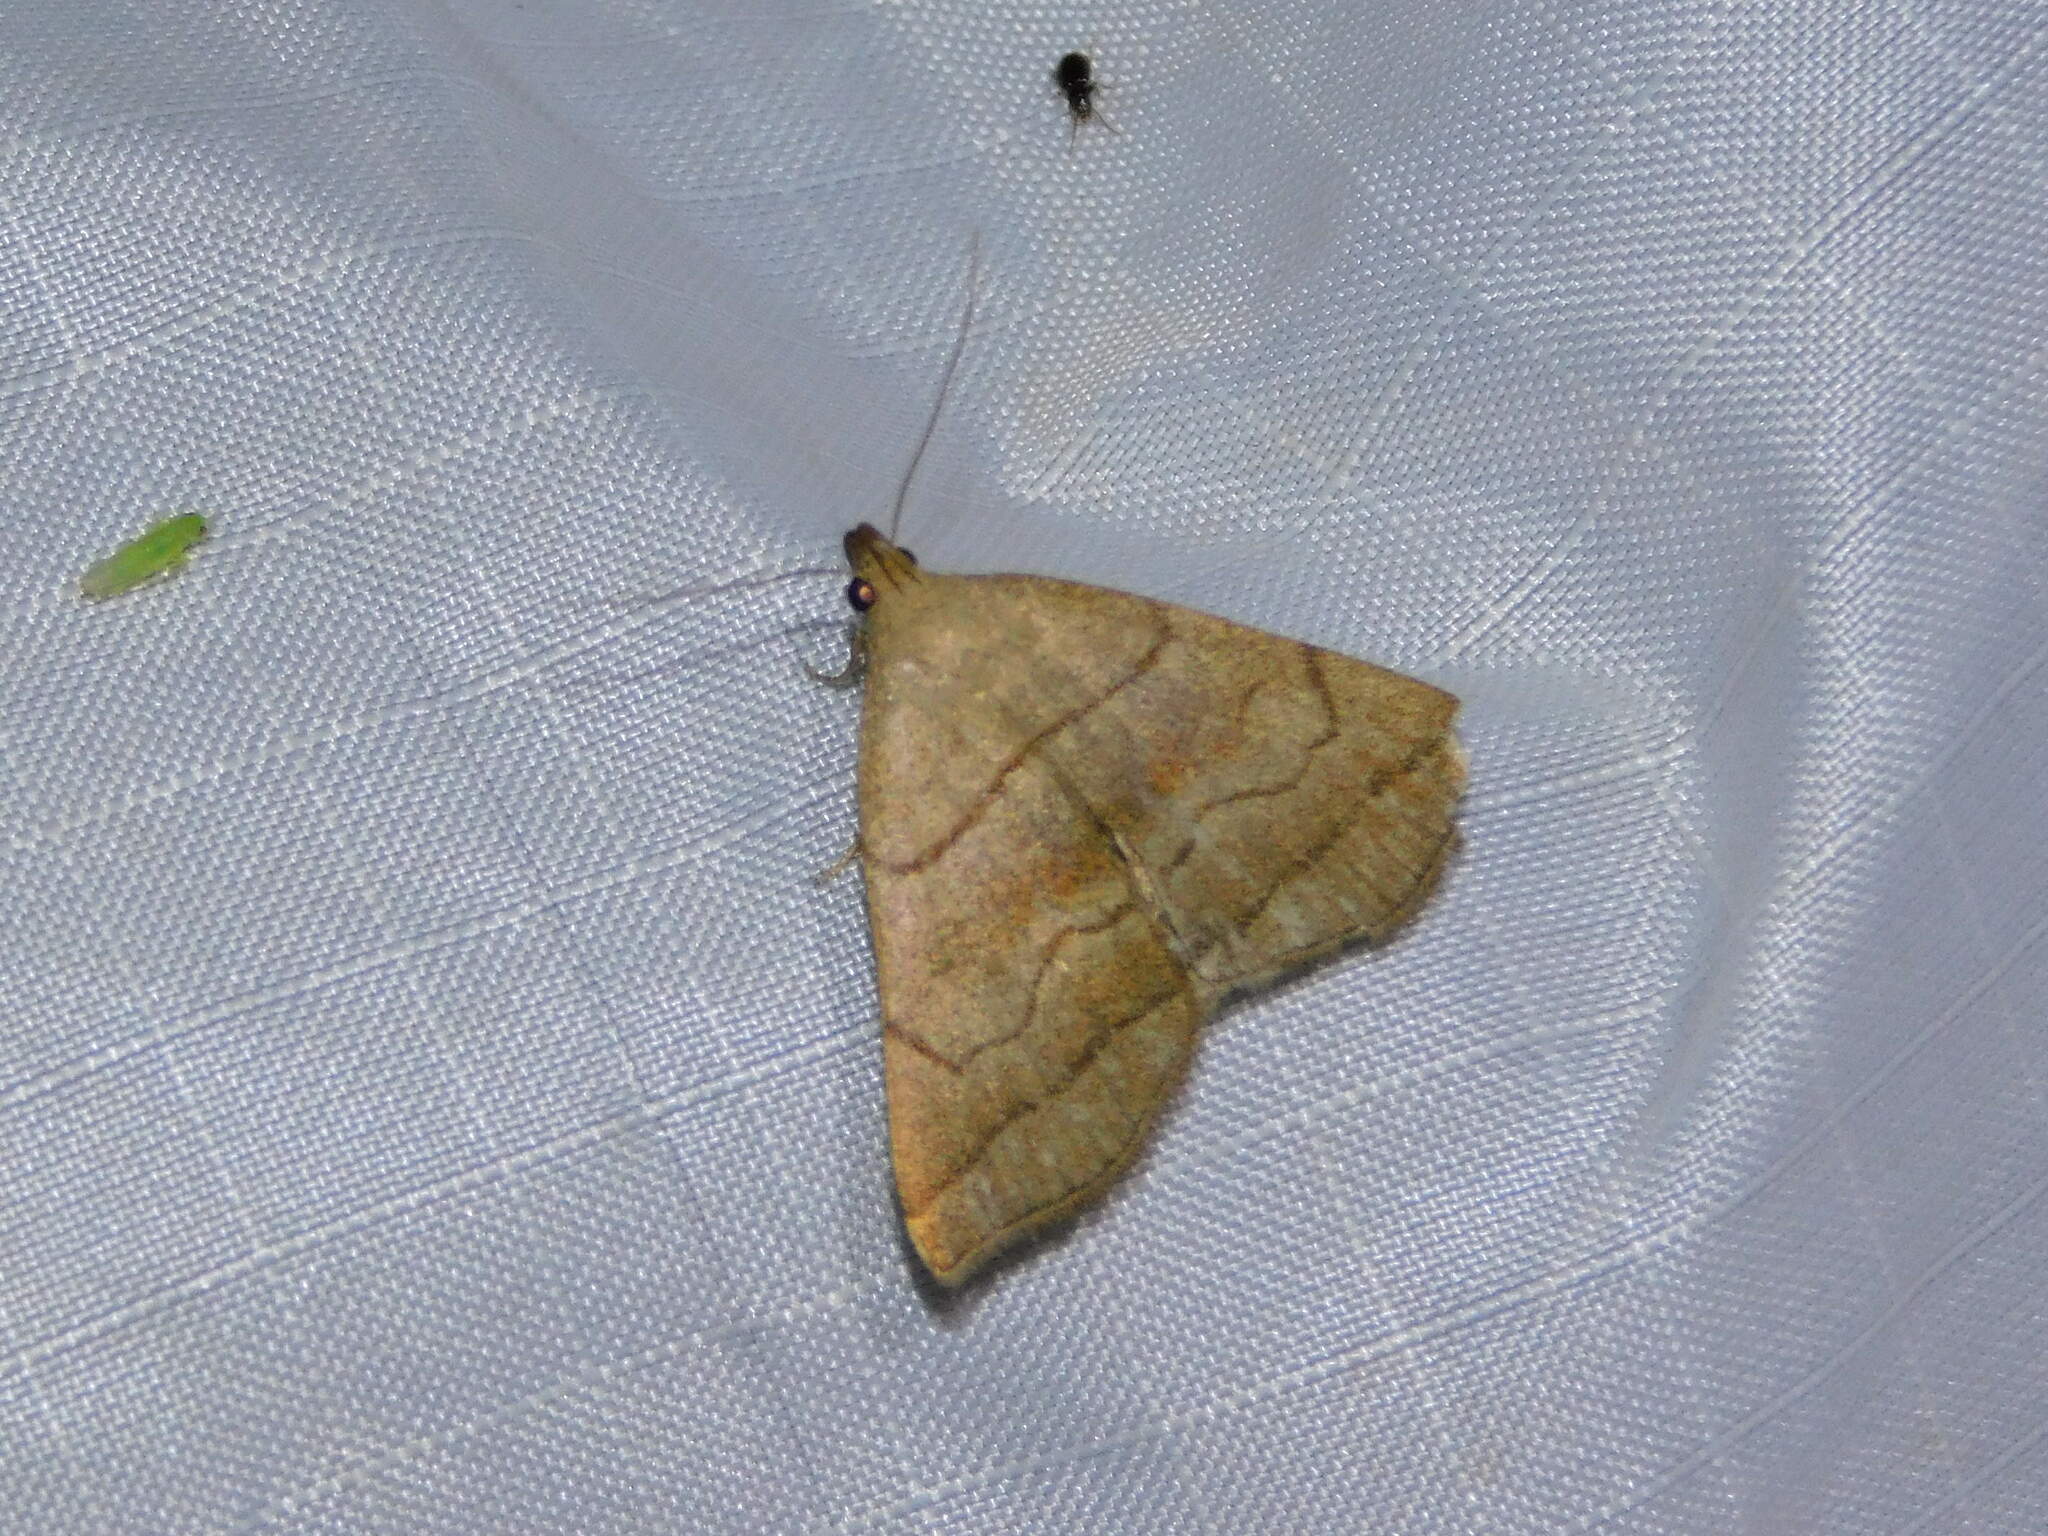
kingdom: Animalia
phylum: Arthropoda
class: Insecta
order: Lepidoptera
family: Erebidae
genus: Herminia
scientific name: Herminia tarsicrinalis
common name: Shaded fan-foot
